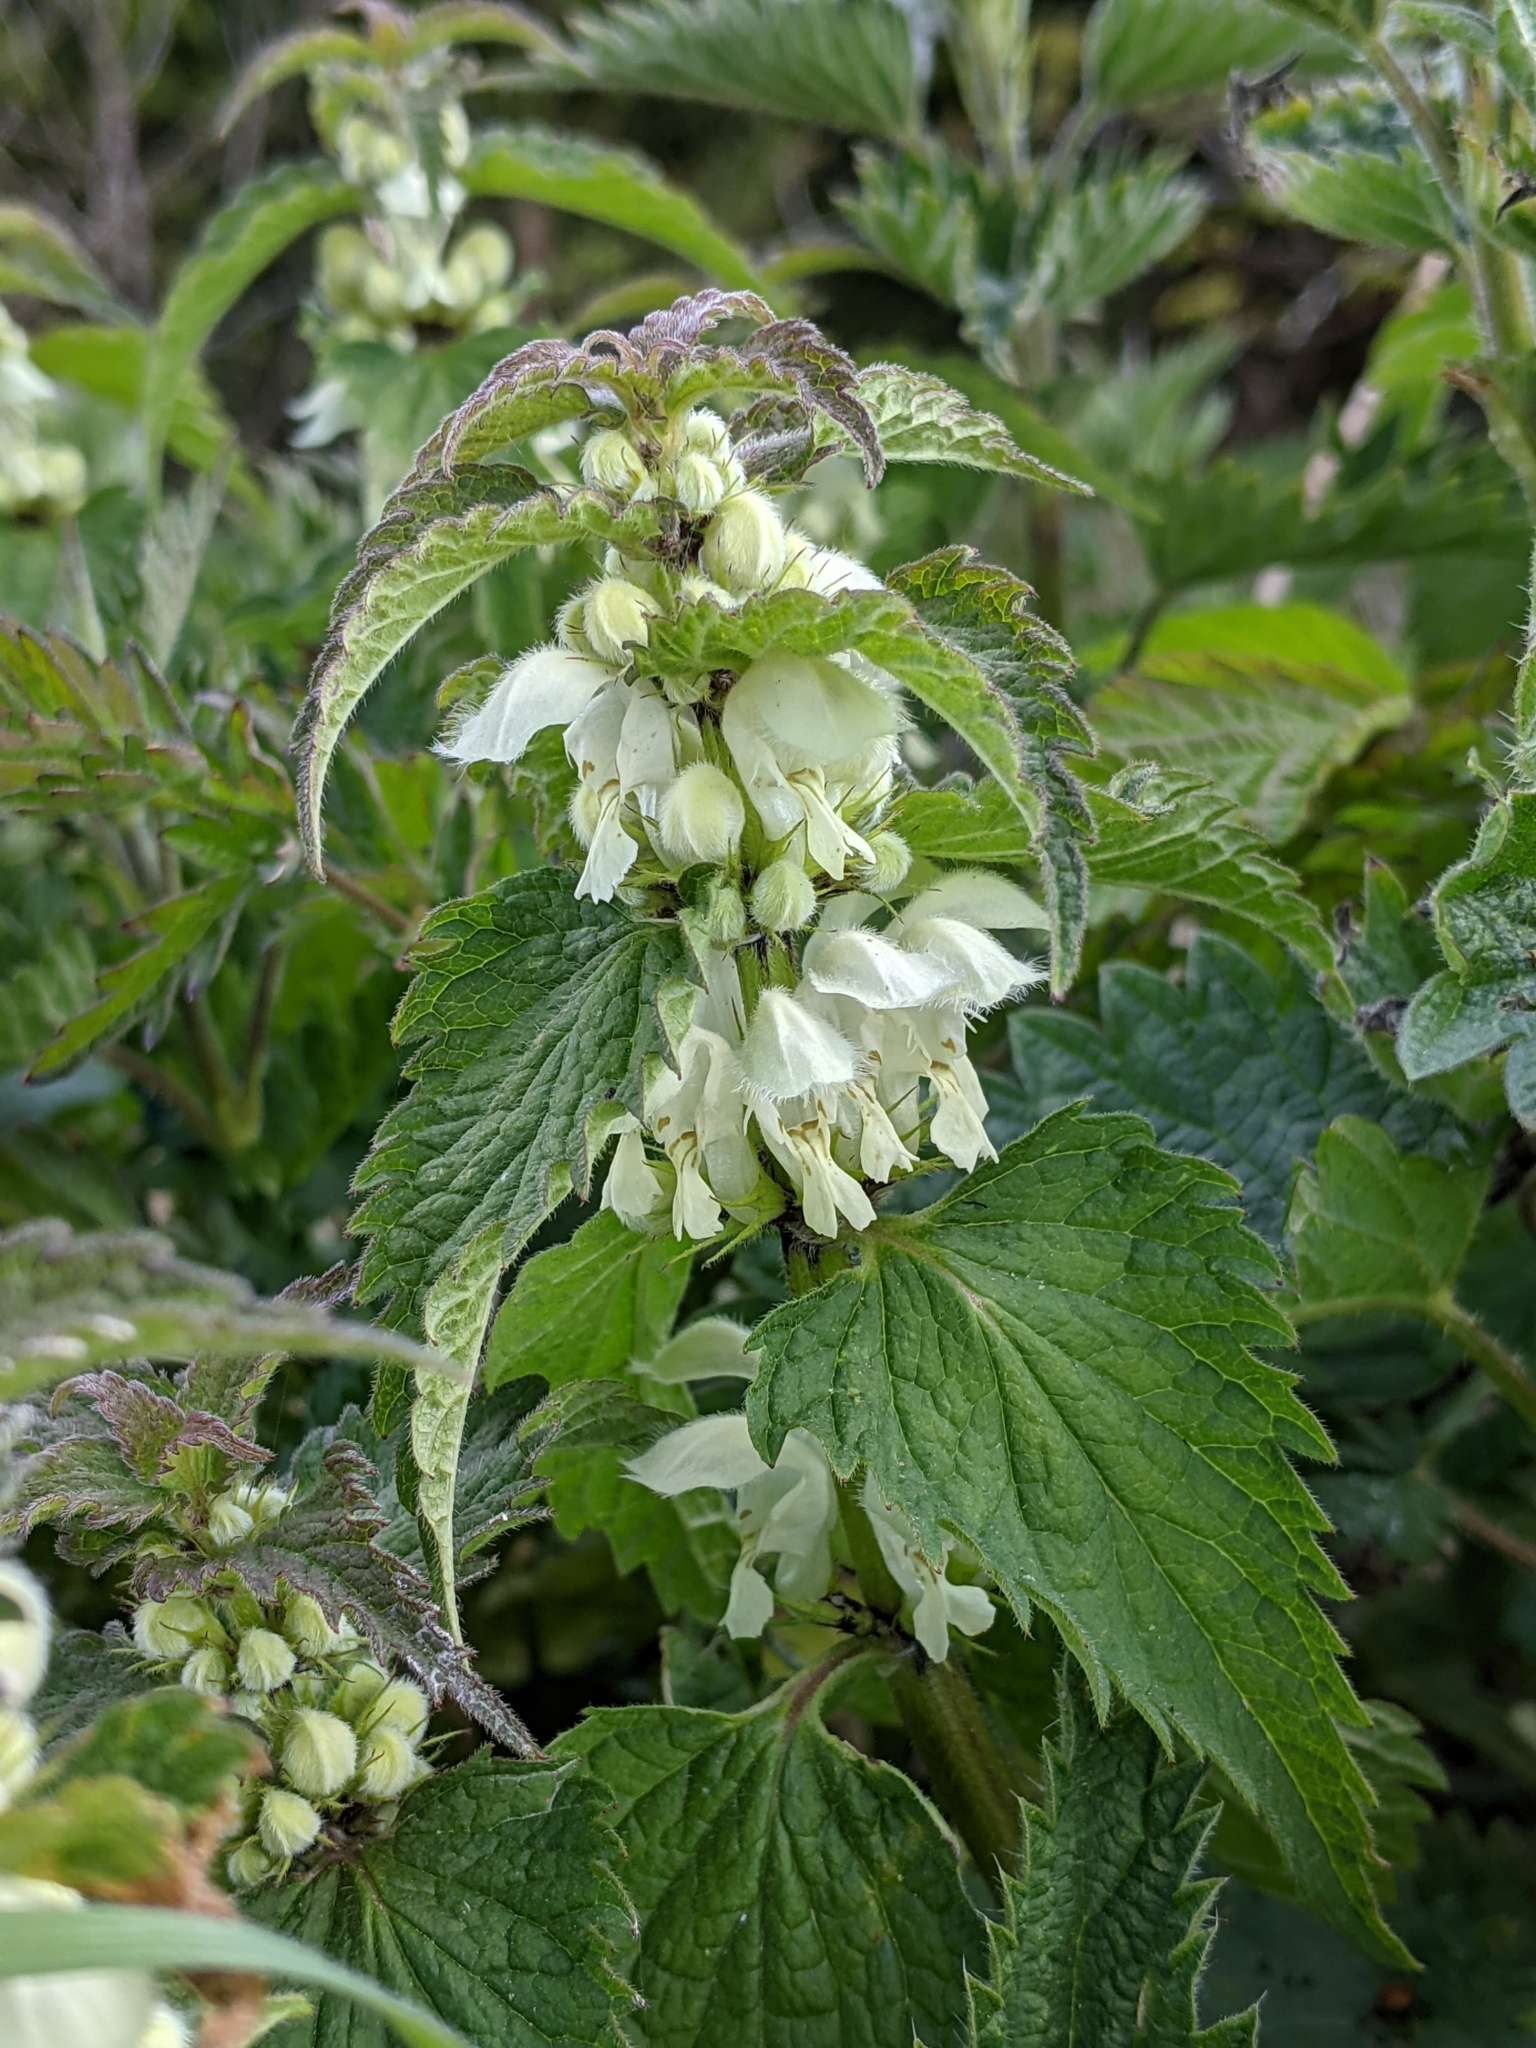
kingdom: Plantae
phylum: Tracheophyta
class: Magnoliopsida
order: Lamiales
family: Lamiaceae
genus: Lamium
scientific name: Lamium album
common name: White dead-nettle
